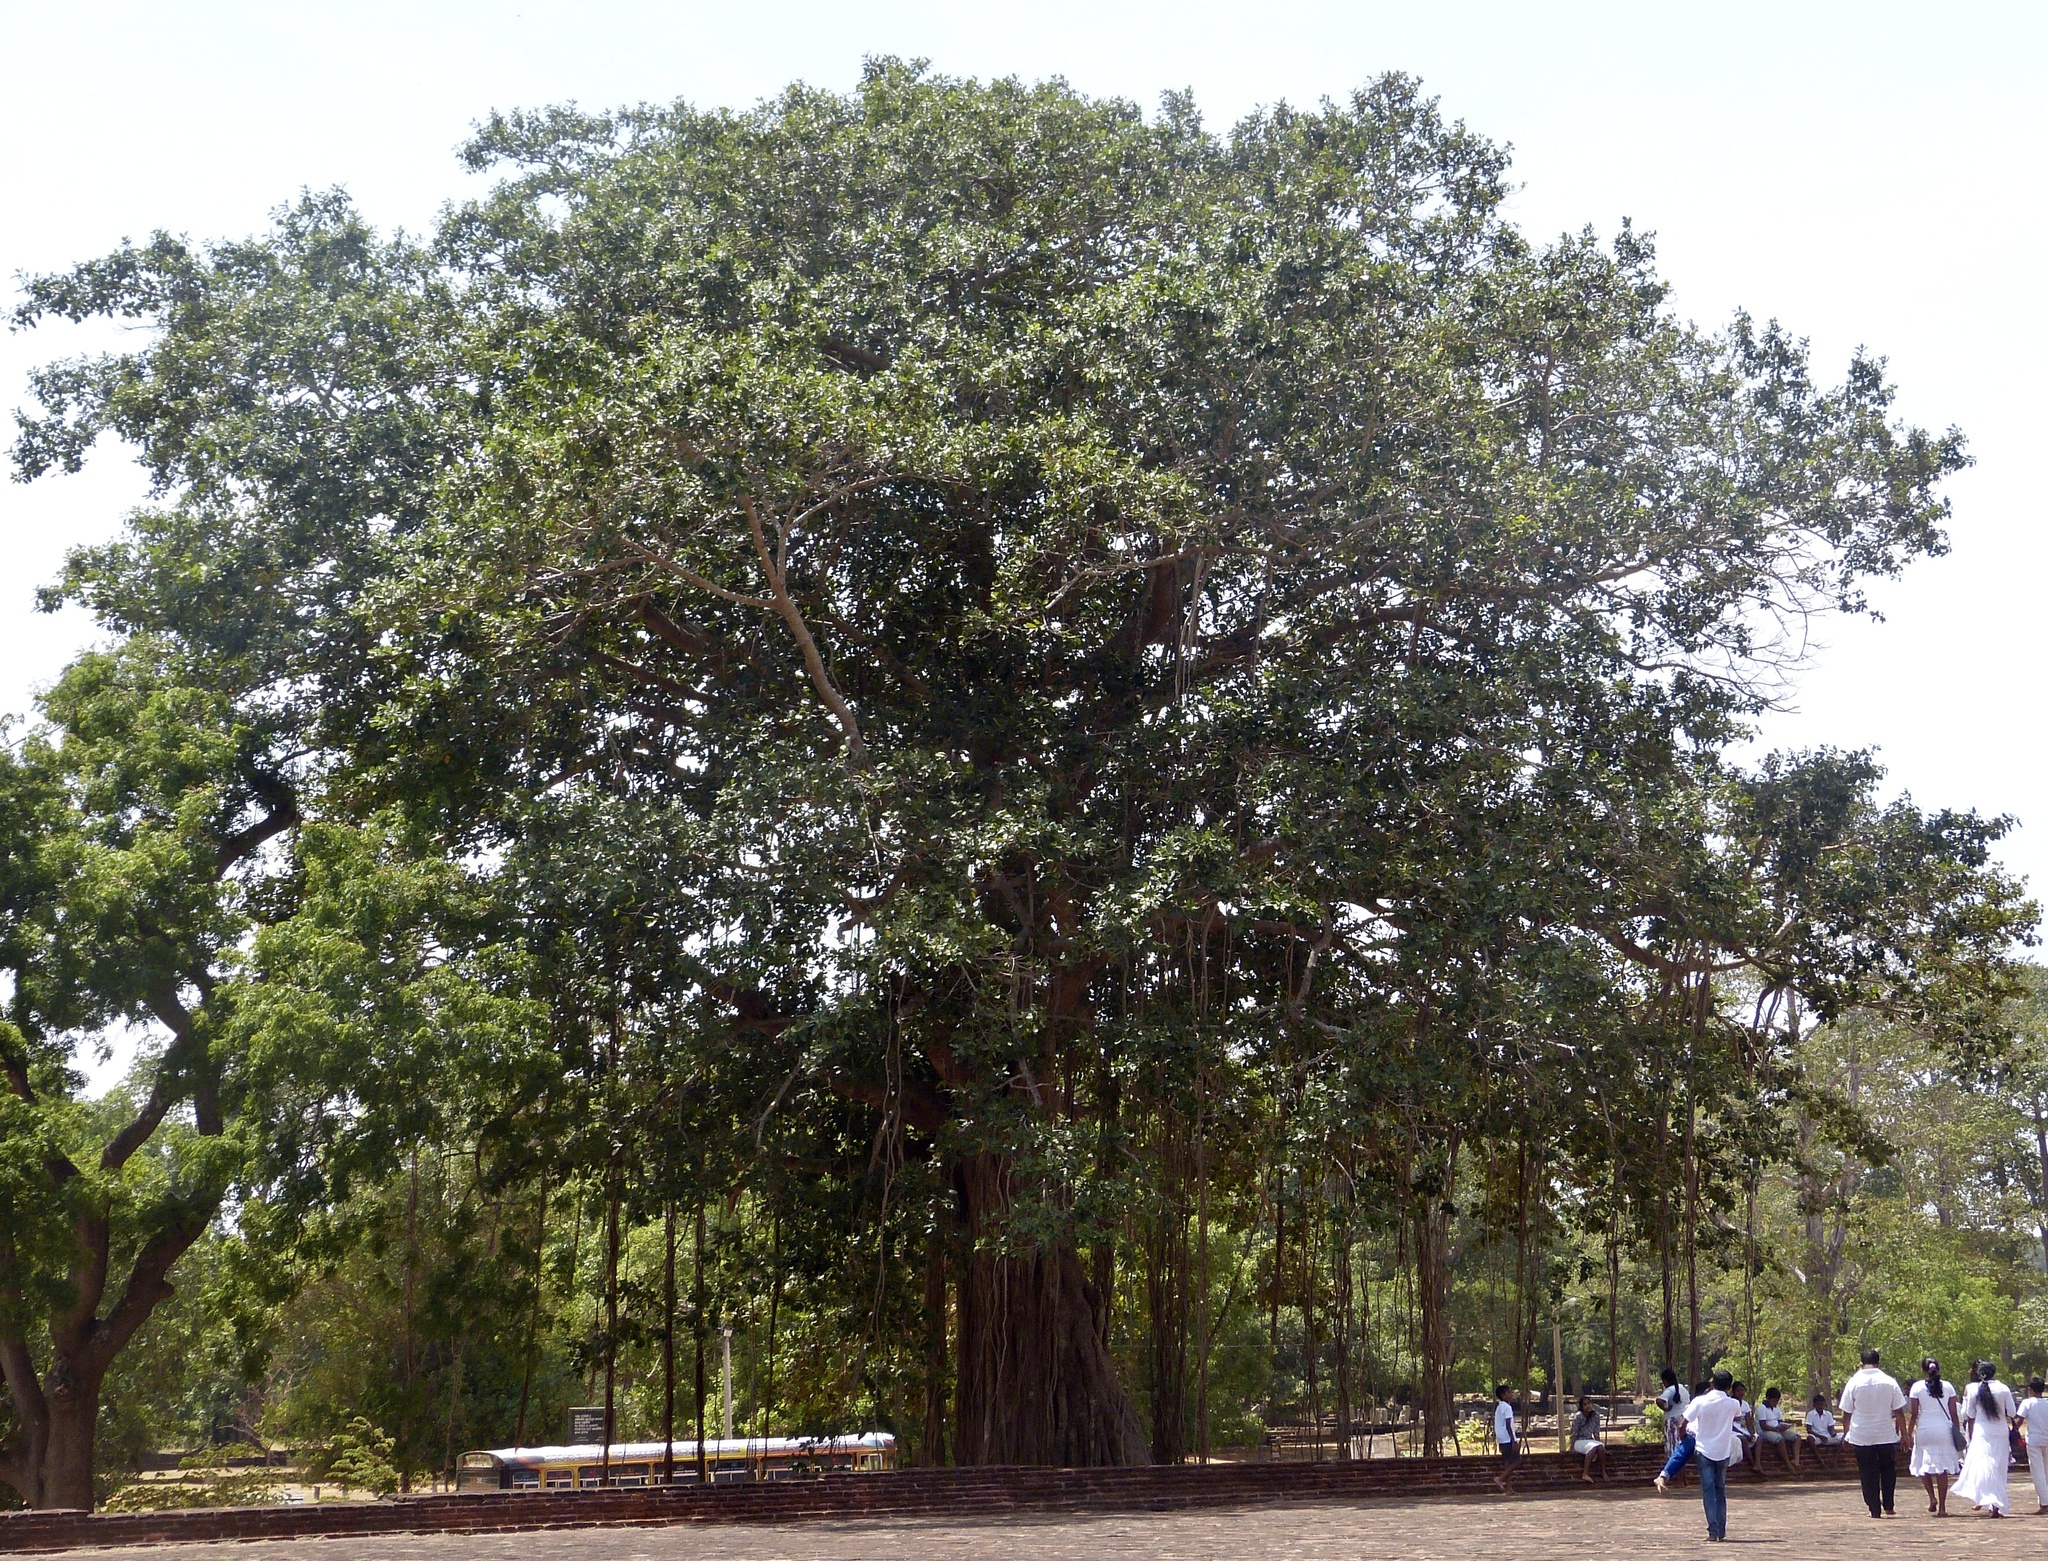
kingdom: Plantae
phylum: Tracheophyta
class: Magnoliopsida
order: Rosales
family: Moraceae
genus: Ficus
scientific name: Ficus benghalensis
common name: Indian banyan
